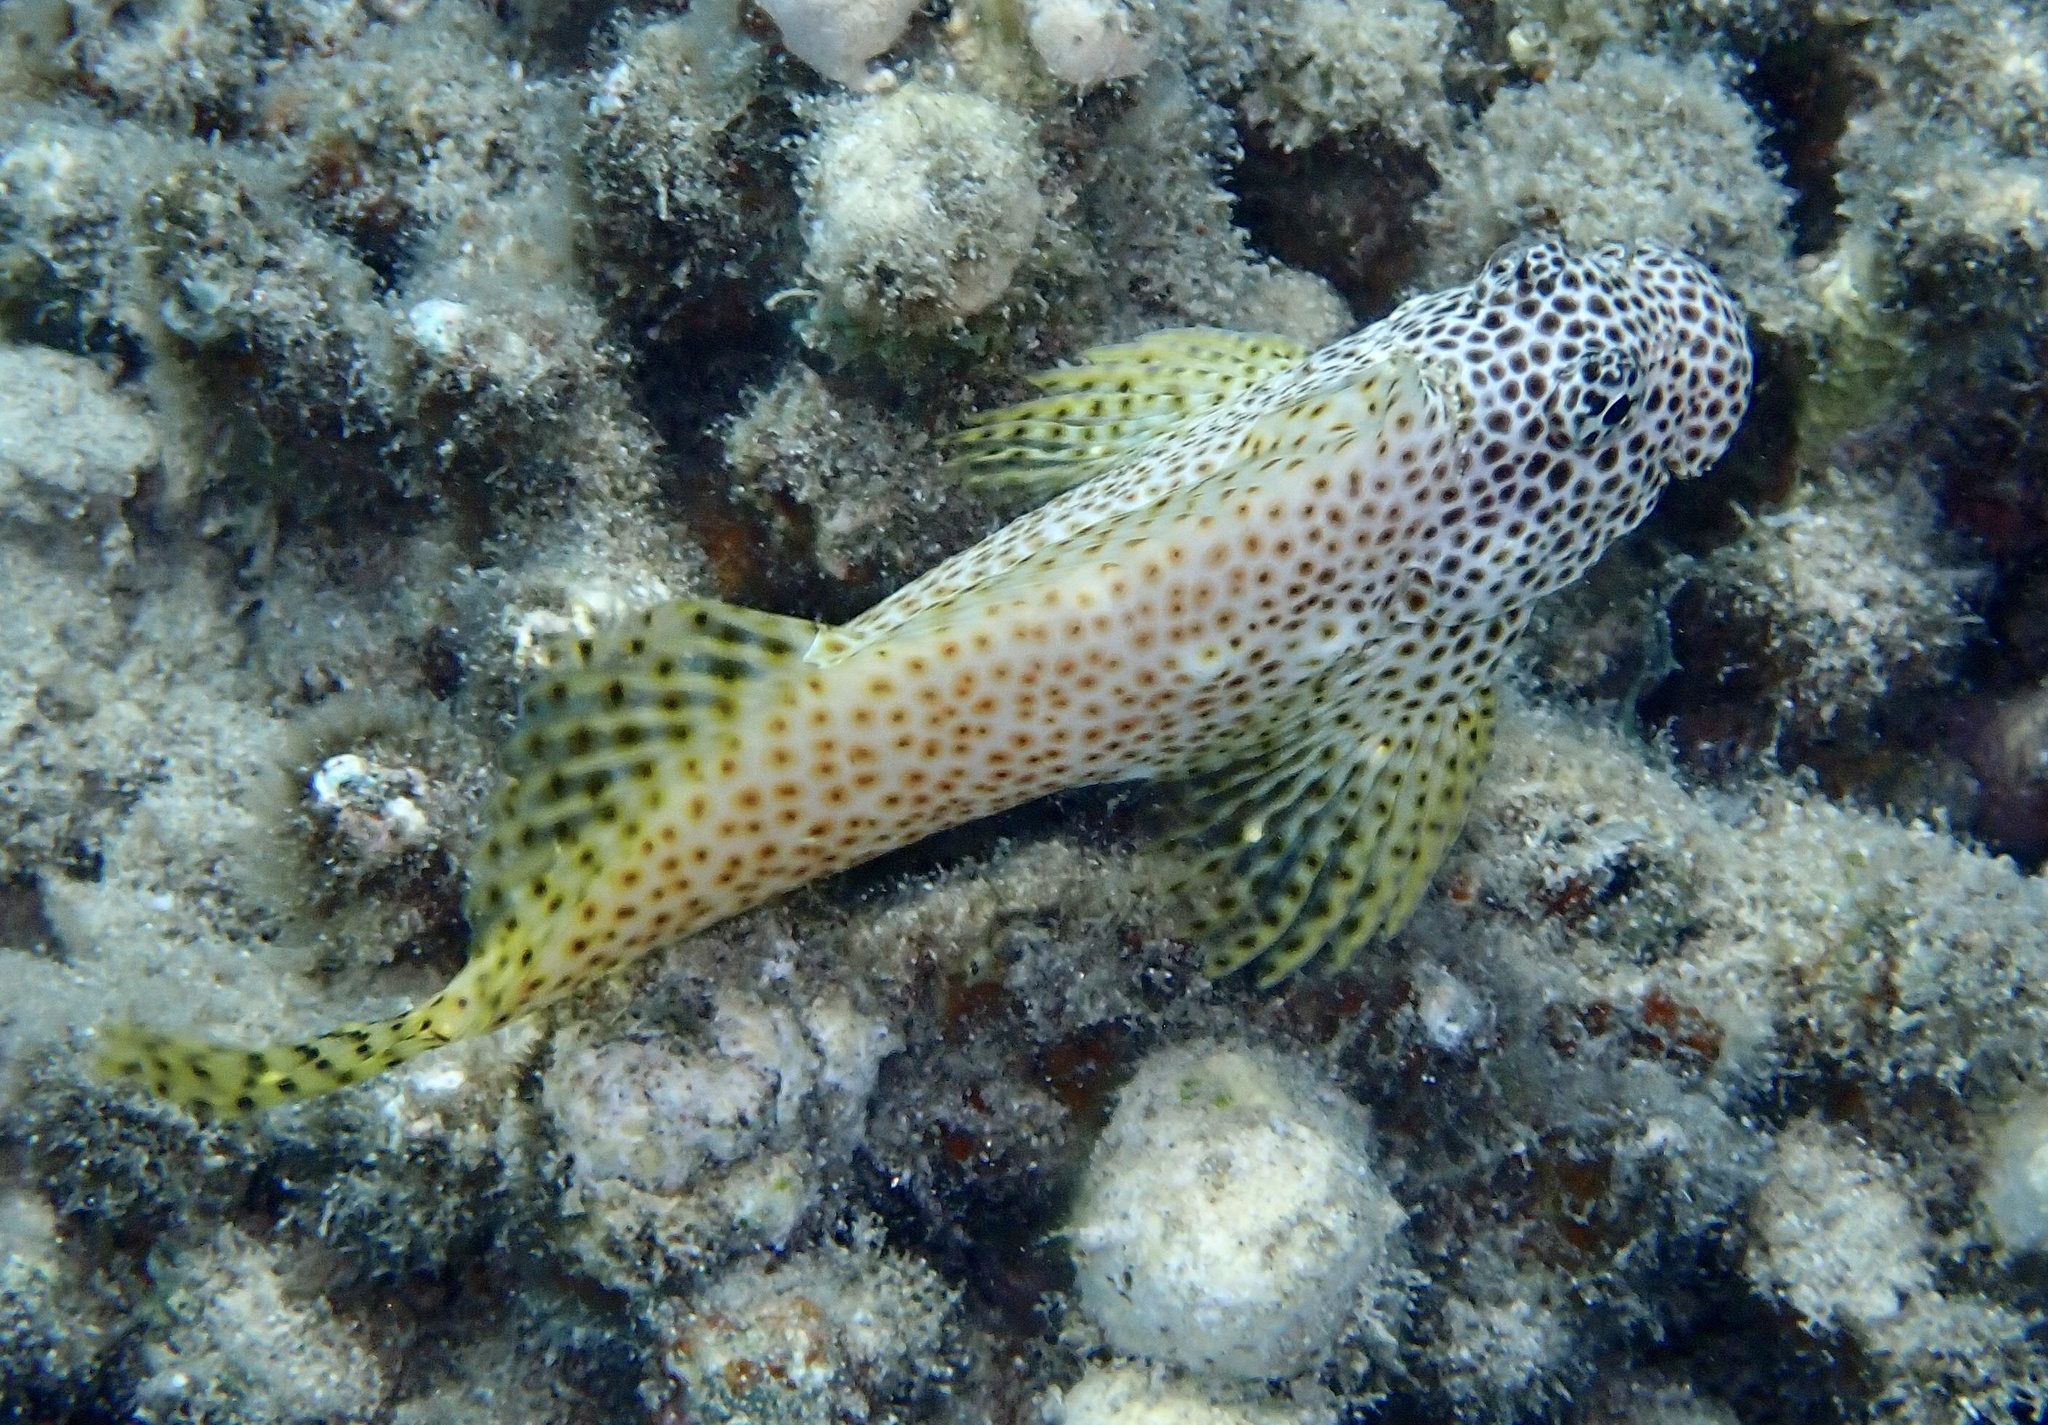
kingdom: Animalia
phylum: Chordata
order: Perciformes
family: Blenniidae
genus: Exallias
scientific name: Exallias brevis
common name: Leopard blenny
